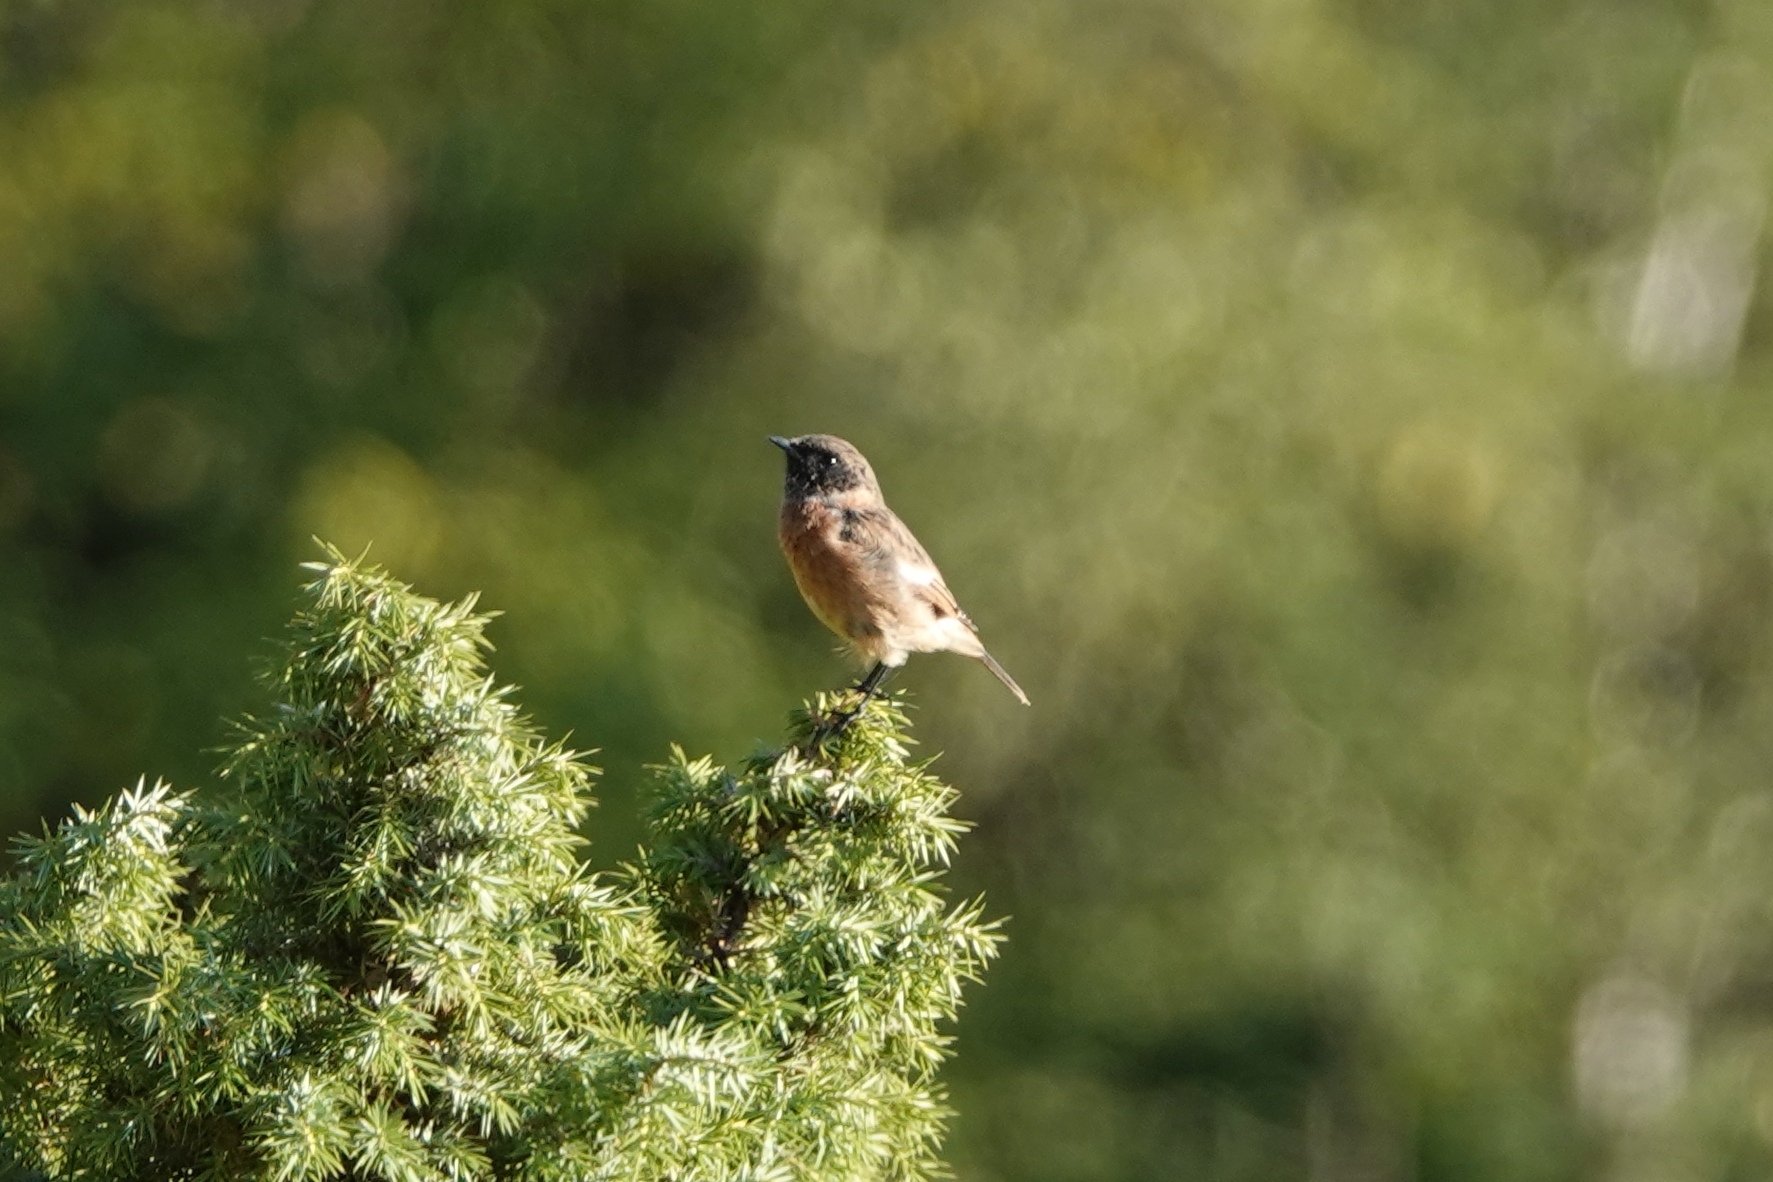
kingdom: Animalia
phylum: Chordata
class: Aves
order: Passeriformes
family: Muscicapidae
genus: Saxicola
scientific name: Saxicola rubicola
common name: European stonechat
